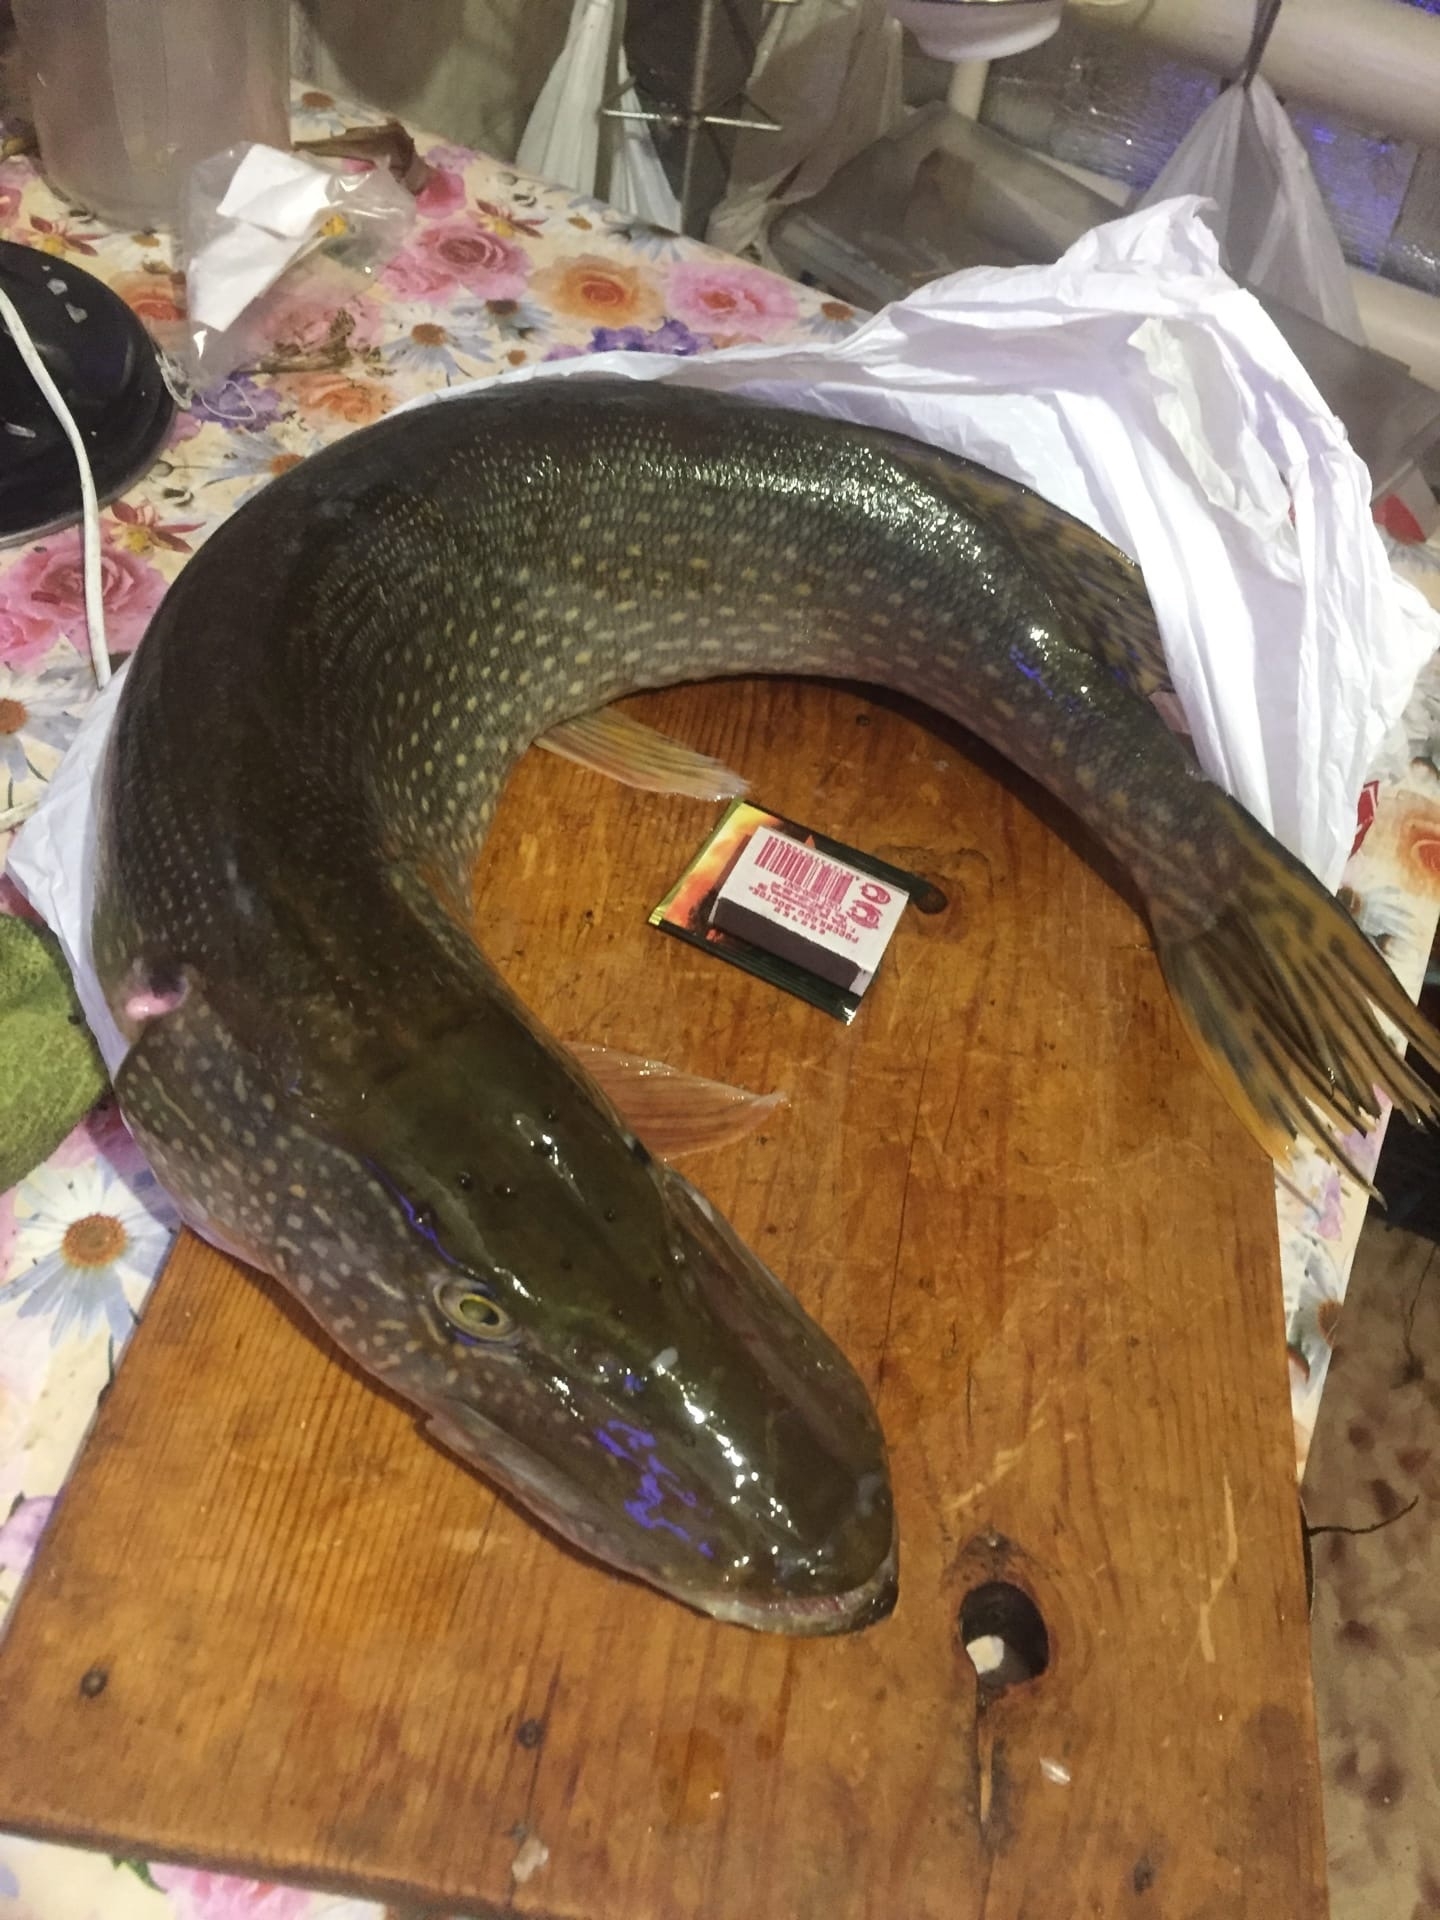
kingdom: Animalia
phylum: Chordata
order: Esociformes
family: Esocidae
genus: Esox
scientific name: Esox lucius
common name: Northern pike
